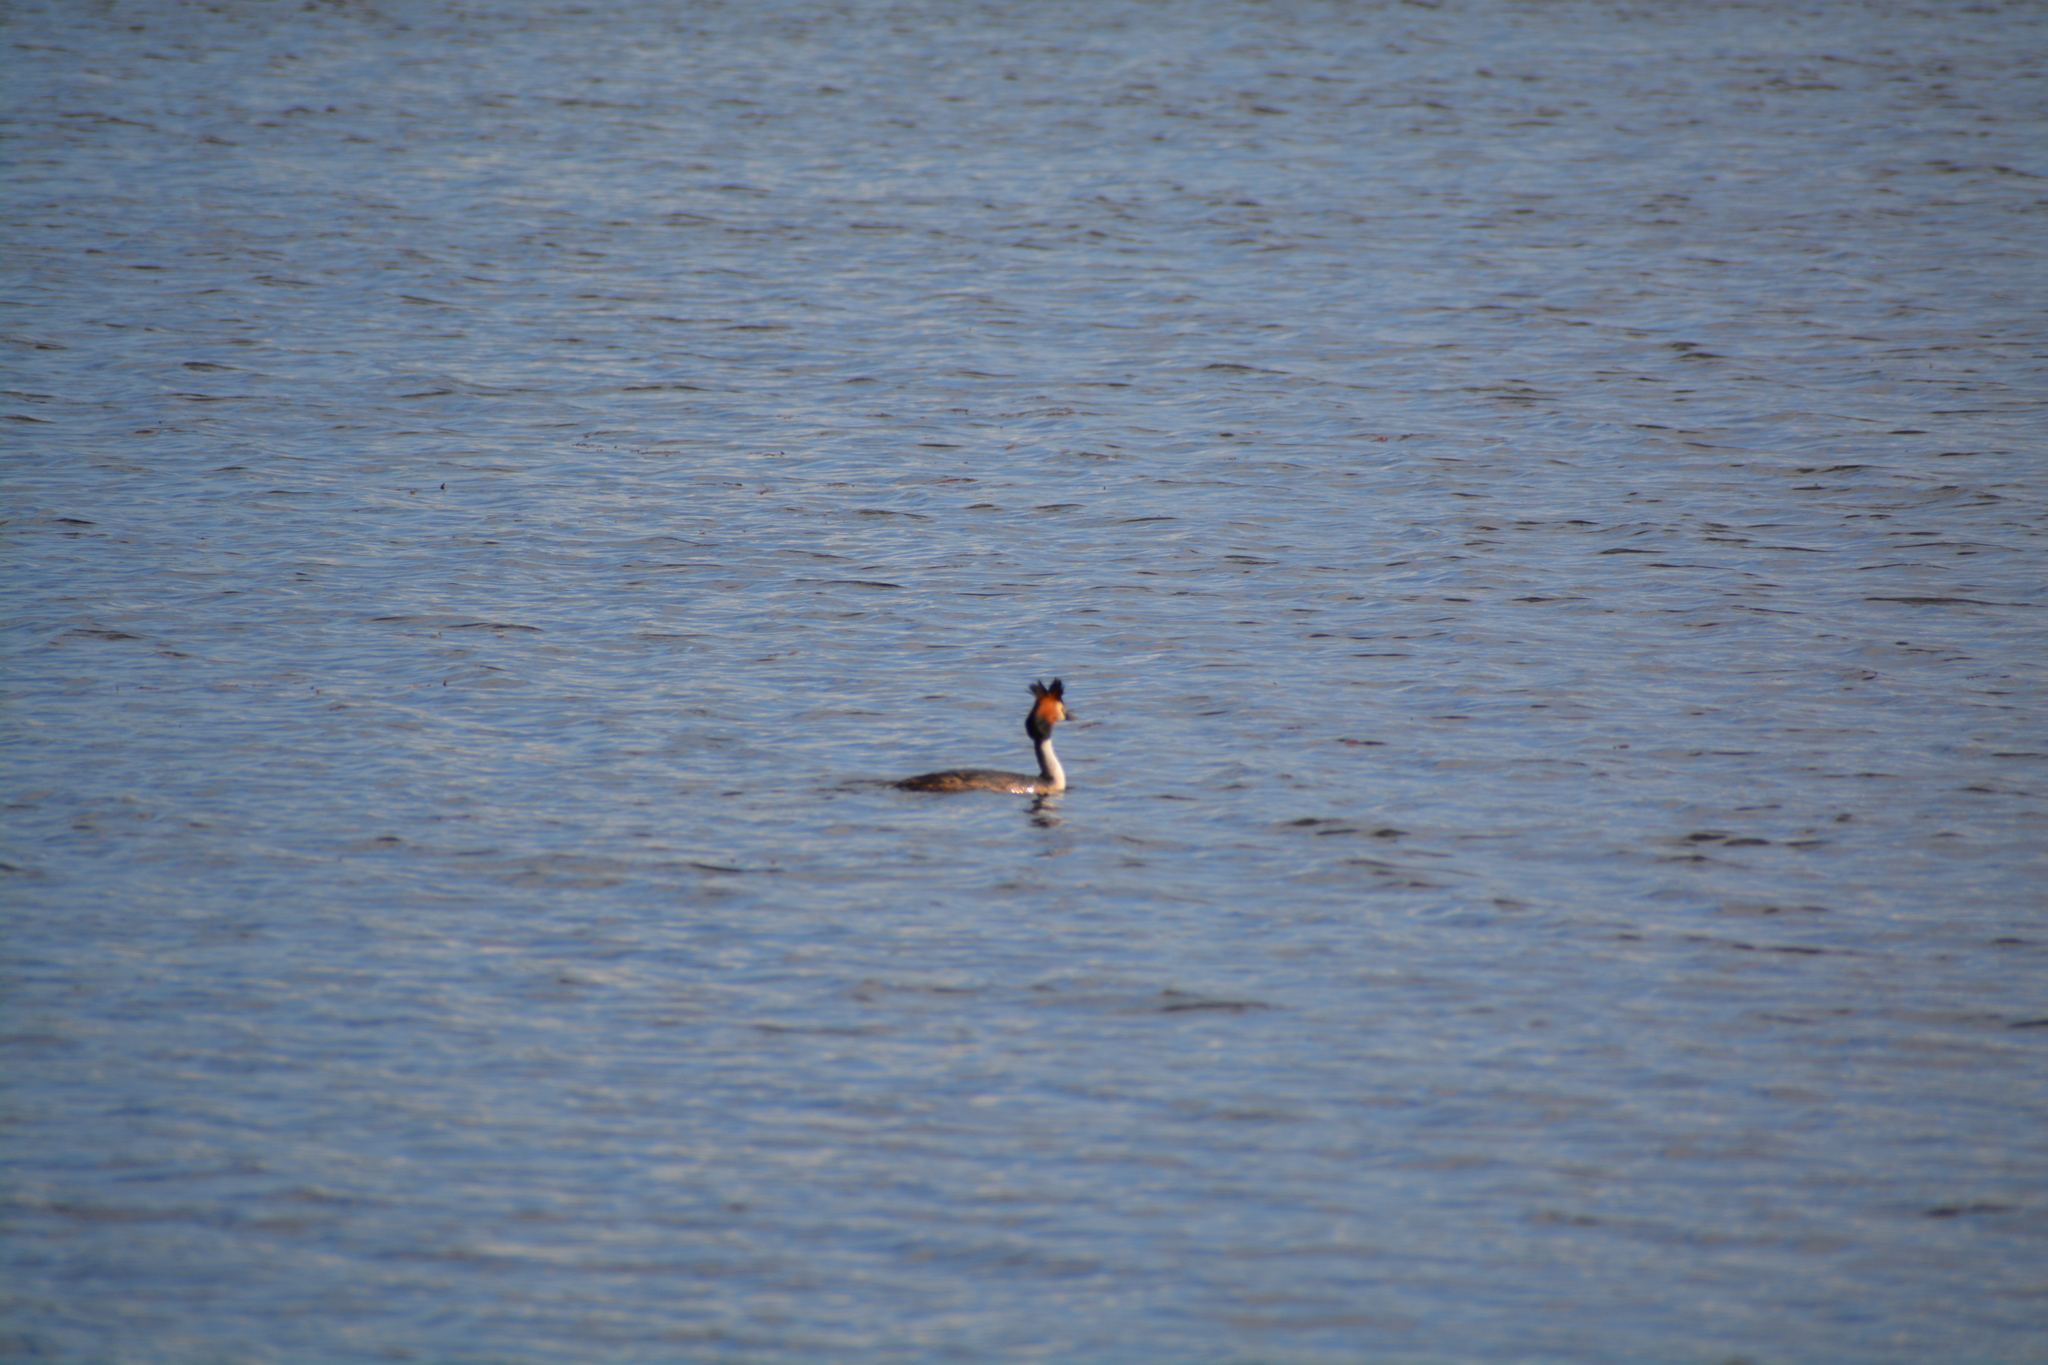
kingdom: Animalia
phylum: Chordata
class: Aves
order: Podicipediformes
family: Podicipedidae
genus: Podiceps
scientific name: Podiceps cristatus
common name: Great crested grebe
